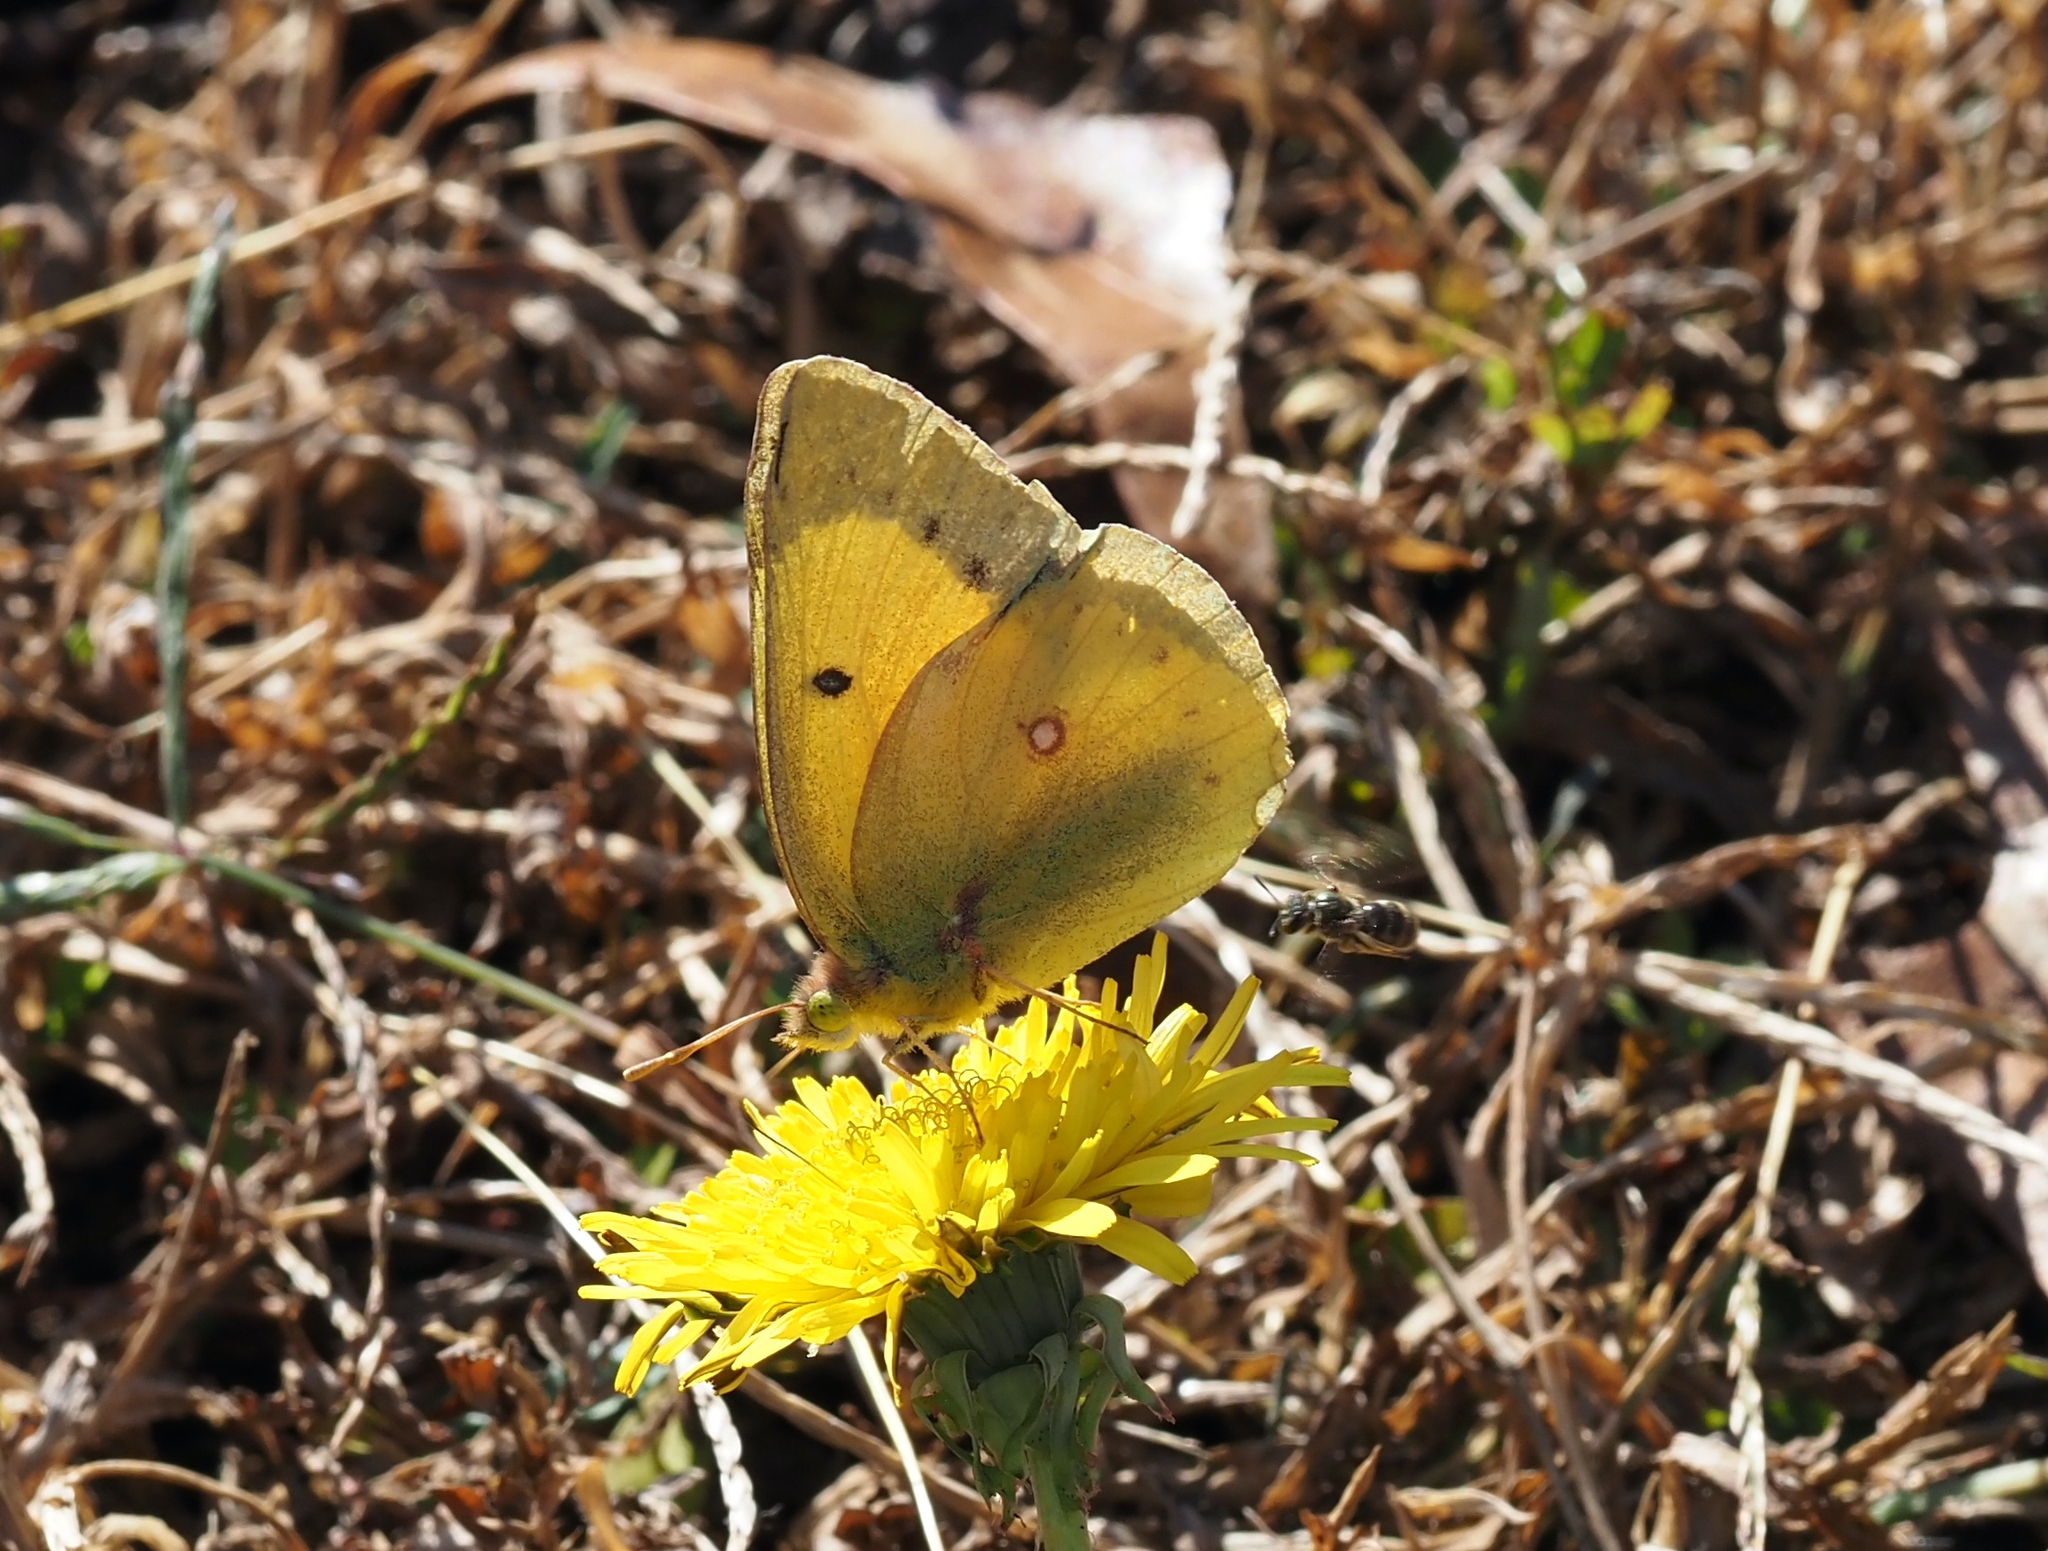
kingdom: Animalia
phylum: Arthropoda
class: Insecta
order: Lepidoptera
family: Pieridae
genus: Colias
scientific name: Colias eurytheme
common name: Alfalfa butterfly
